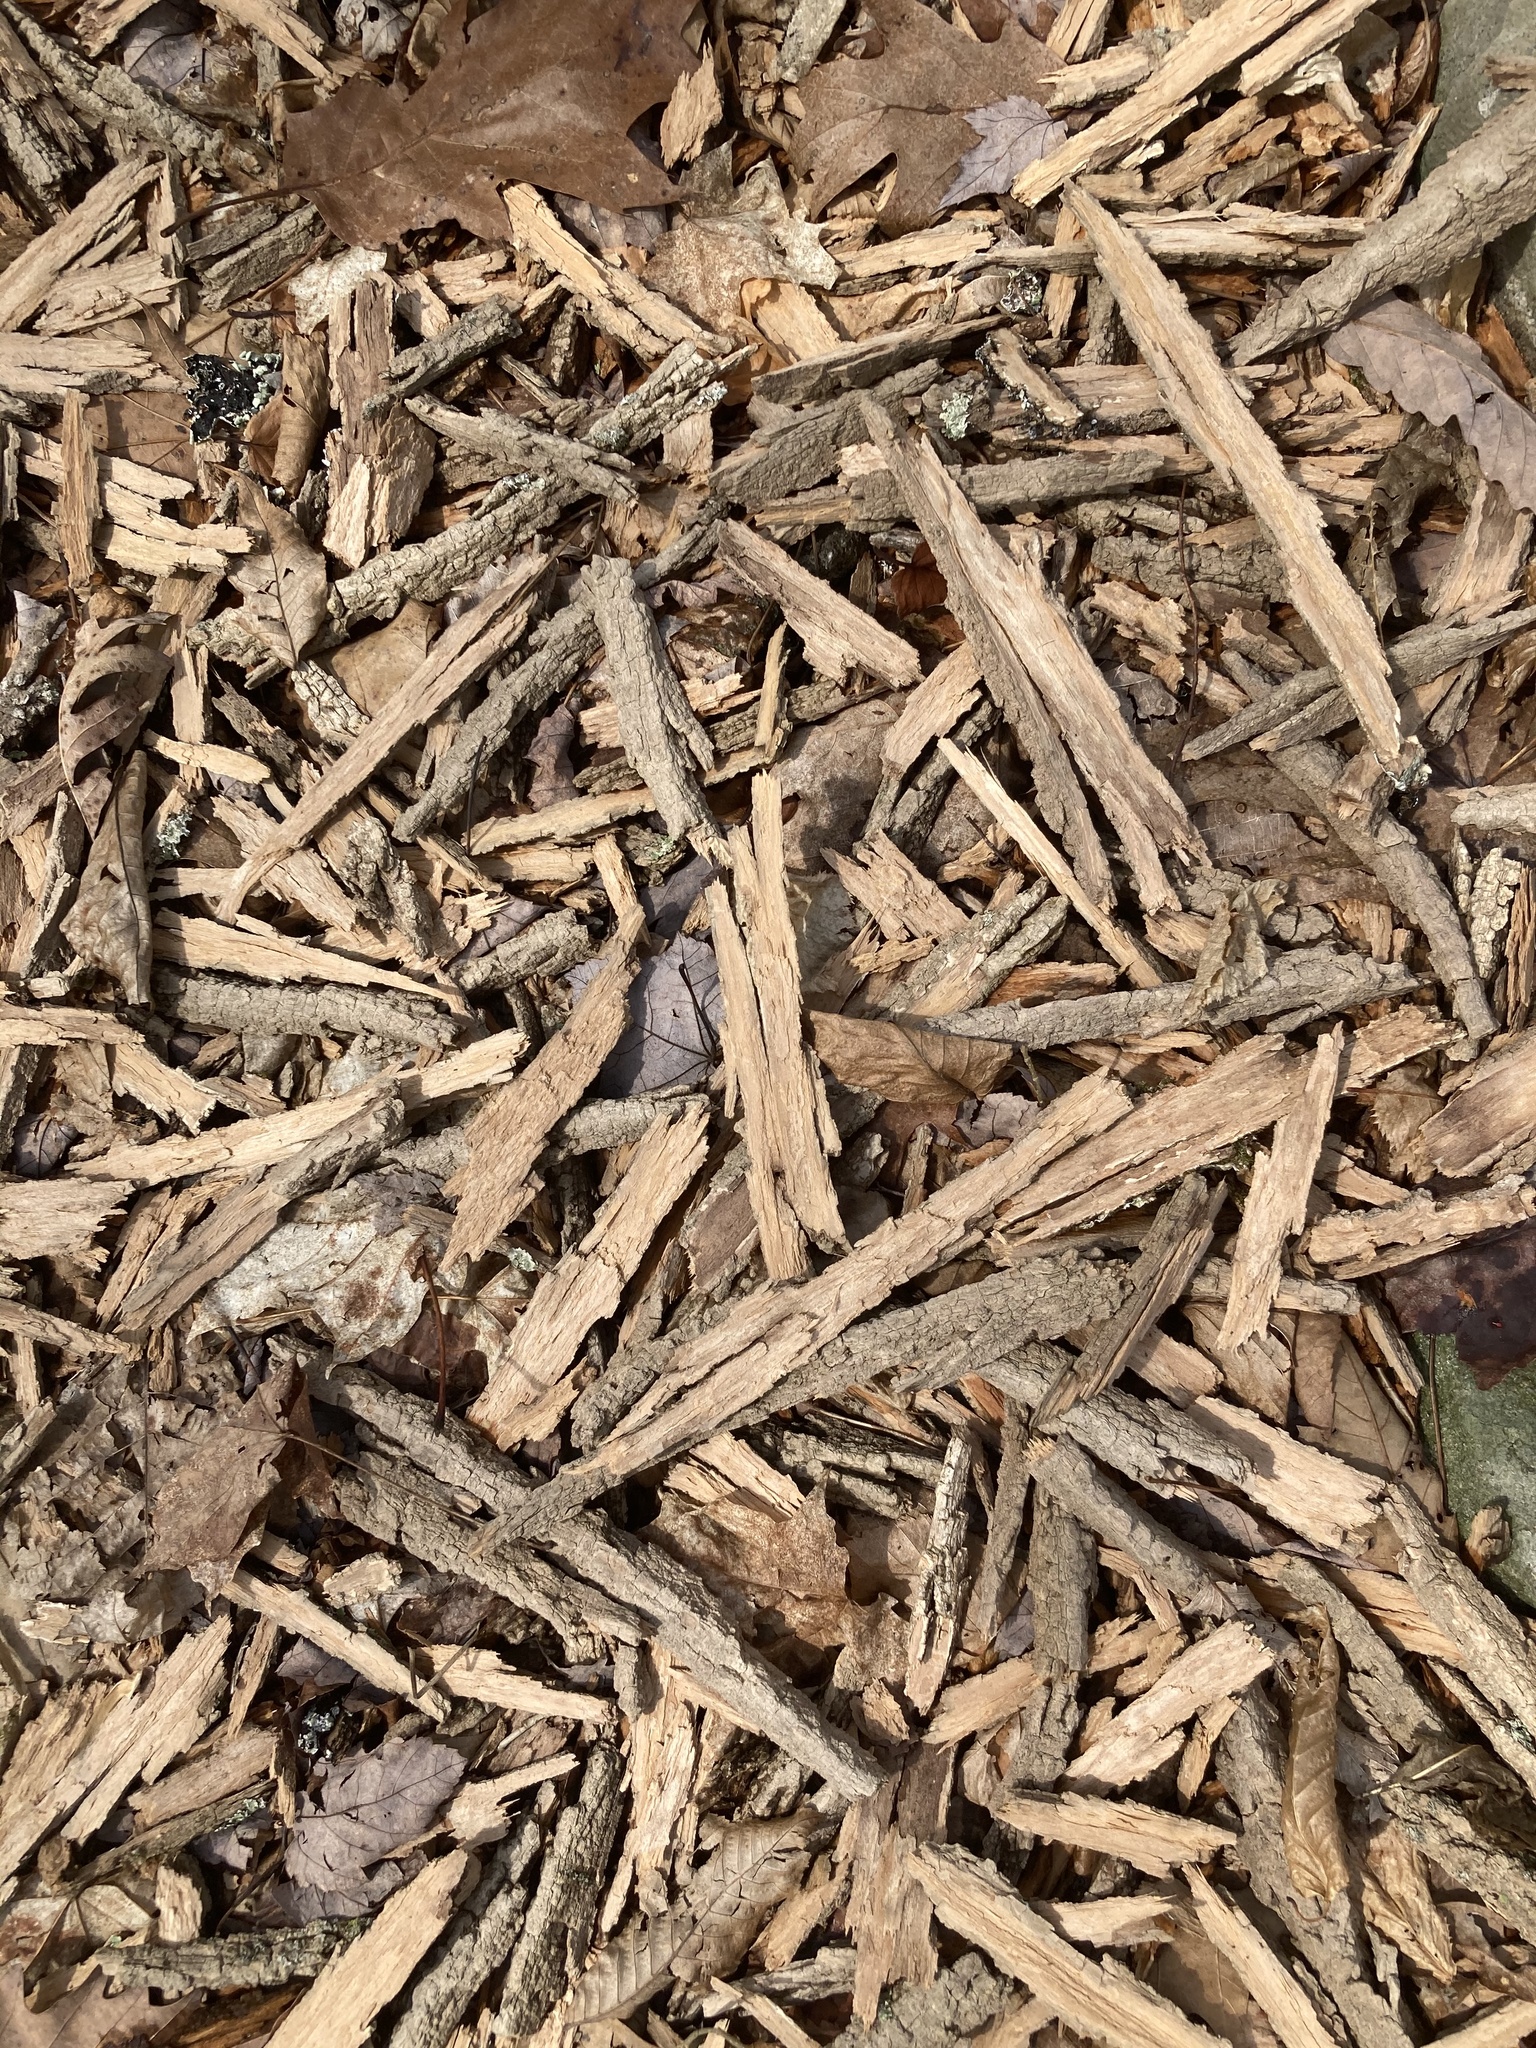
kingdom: Animalia
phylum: Arthropoda
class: Insecta
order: Coleoptera
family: Buprestidae
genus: Agrilus
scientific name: Agrilus planipennis
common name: Emerald ash borer
